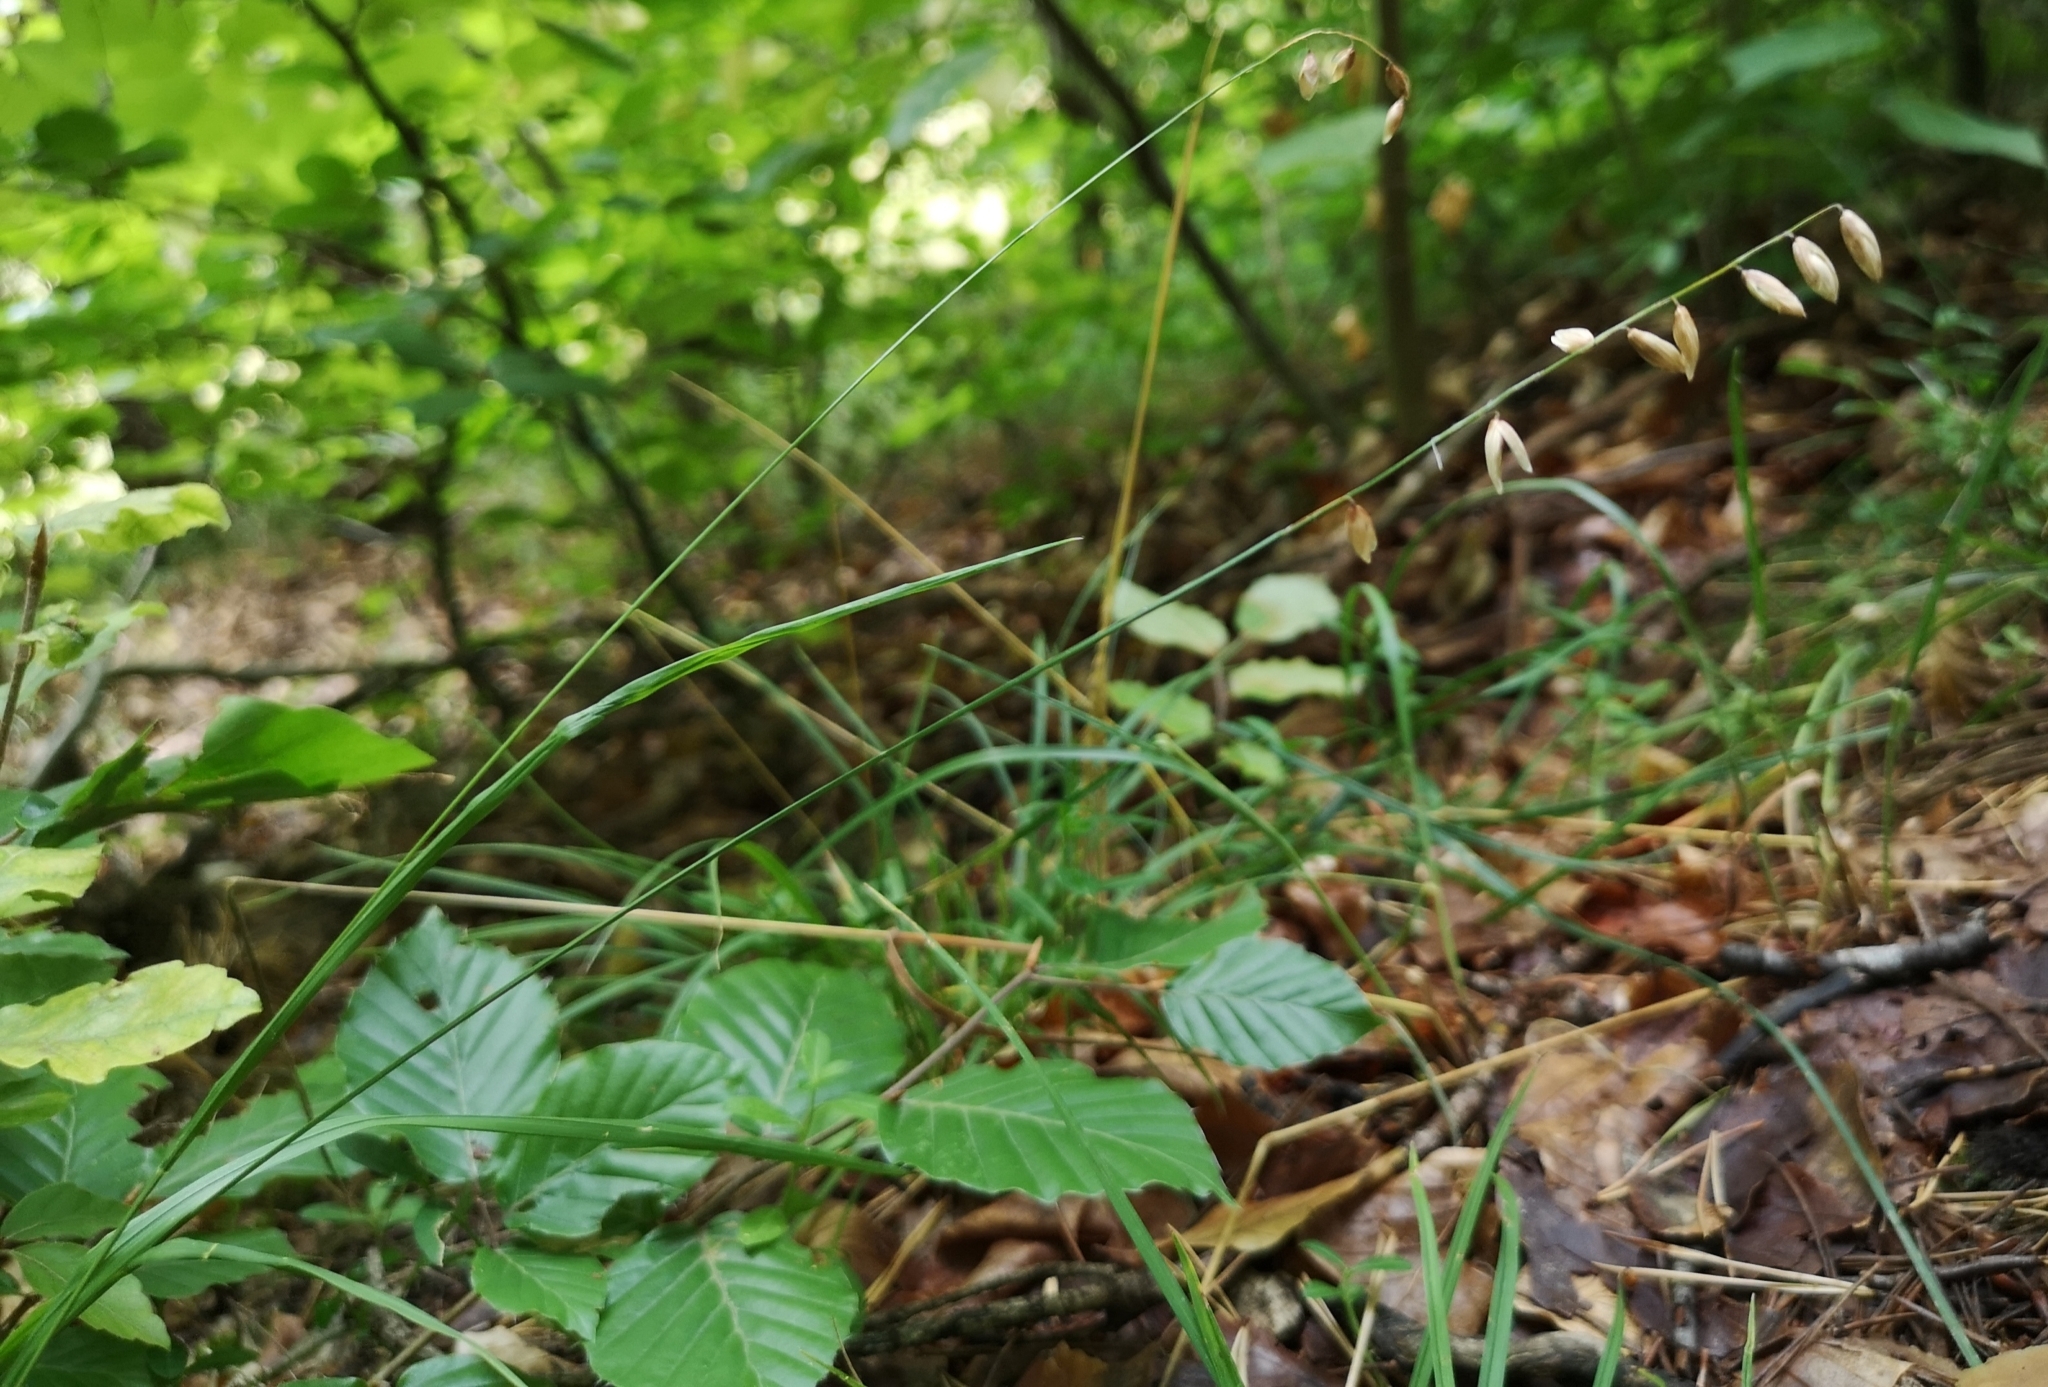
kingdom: Plantae
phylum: Tracheophyta
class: Liliopsida
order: Poales
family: Poaceae
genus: Melica
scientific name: Melica nutans
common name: Mountain melick
